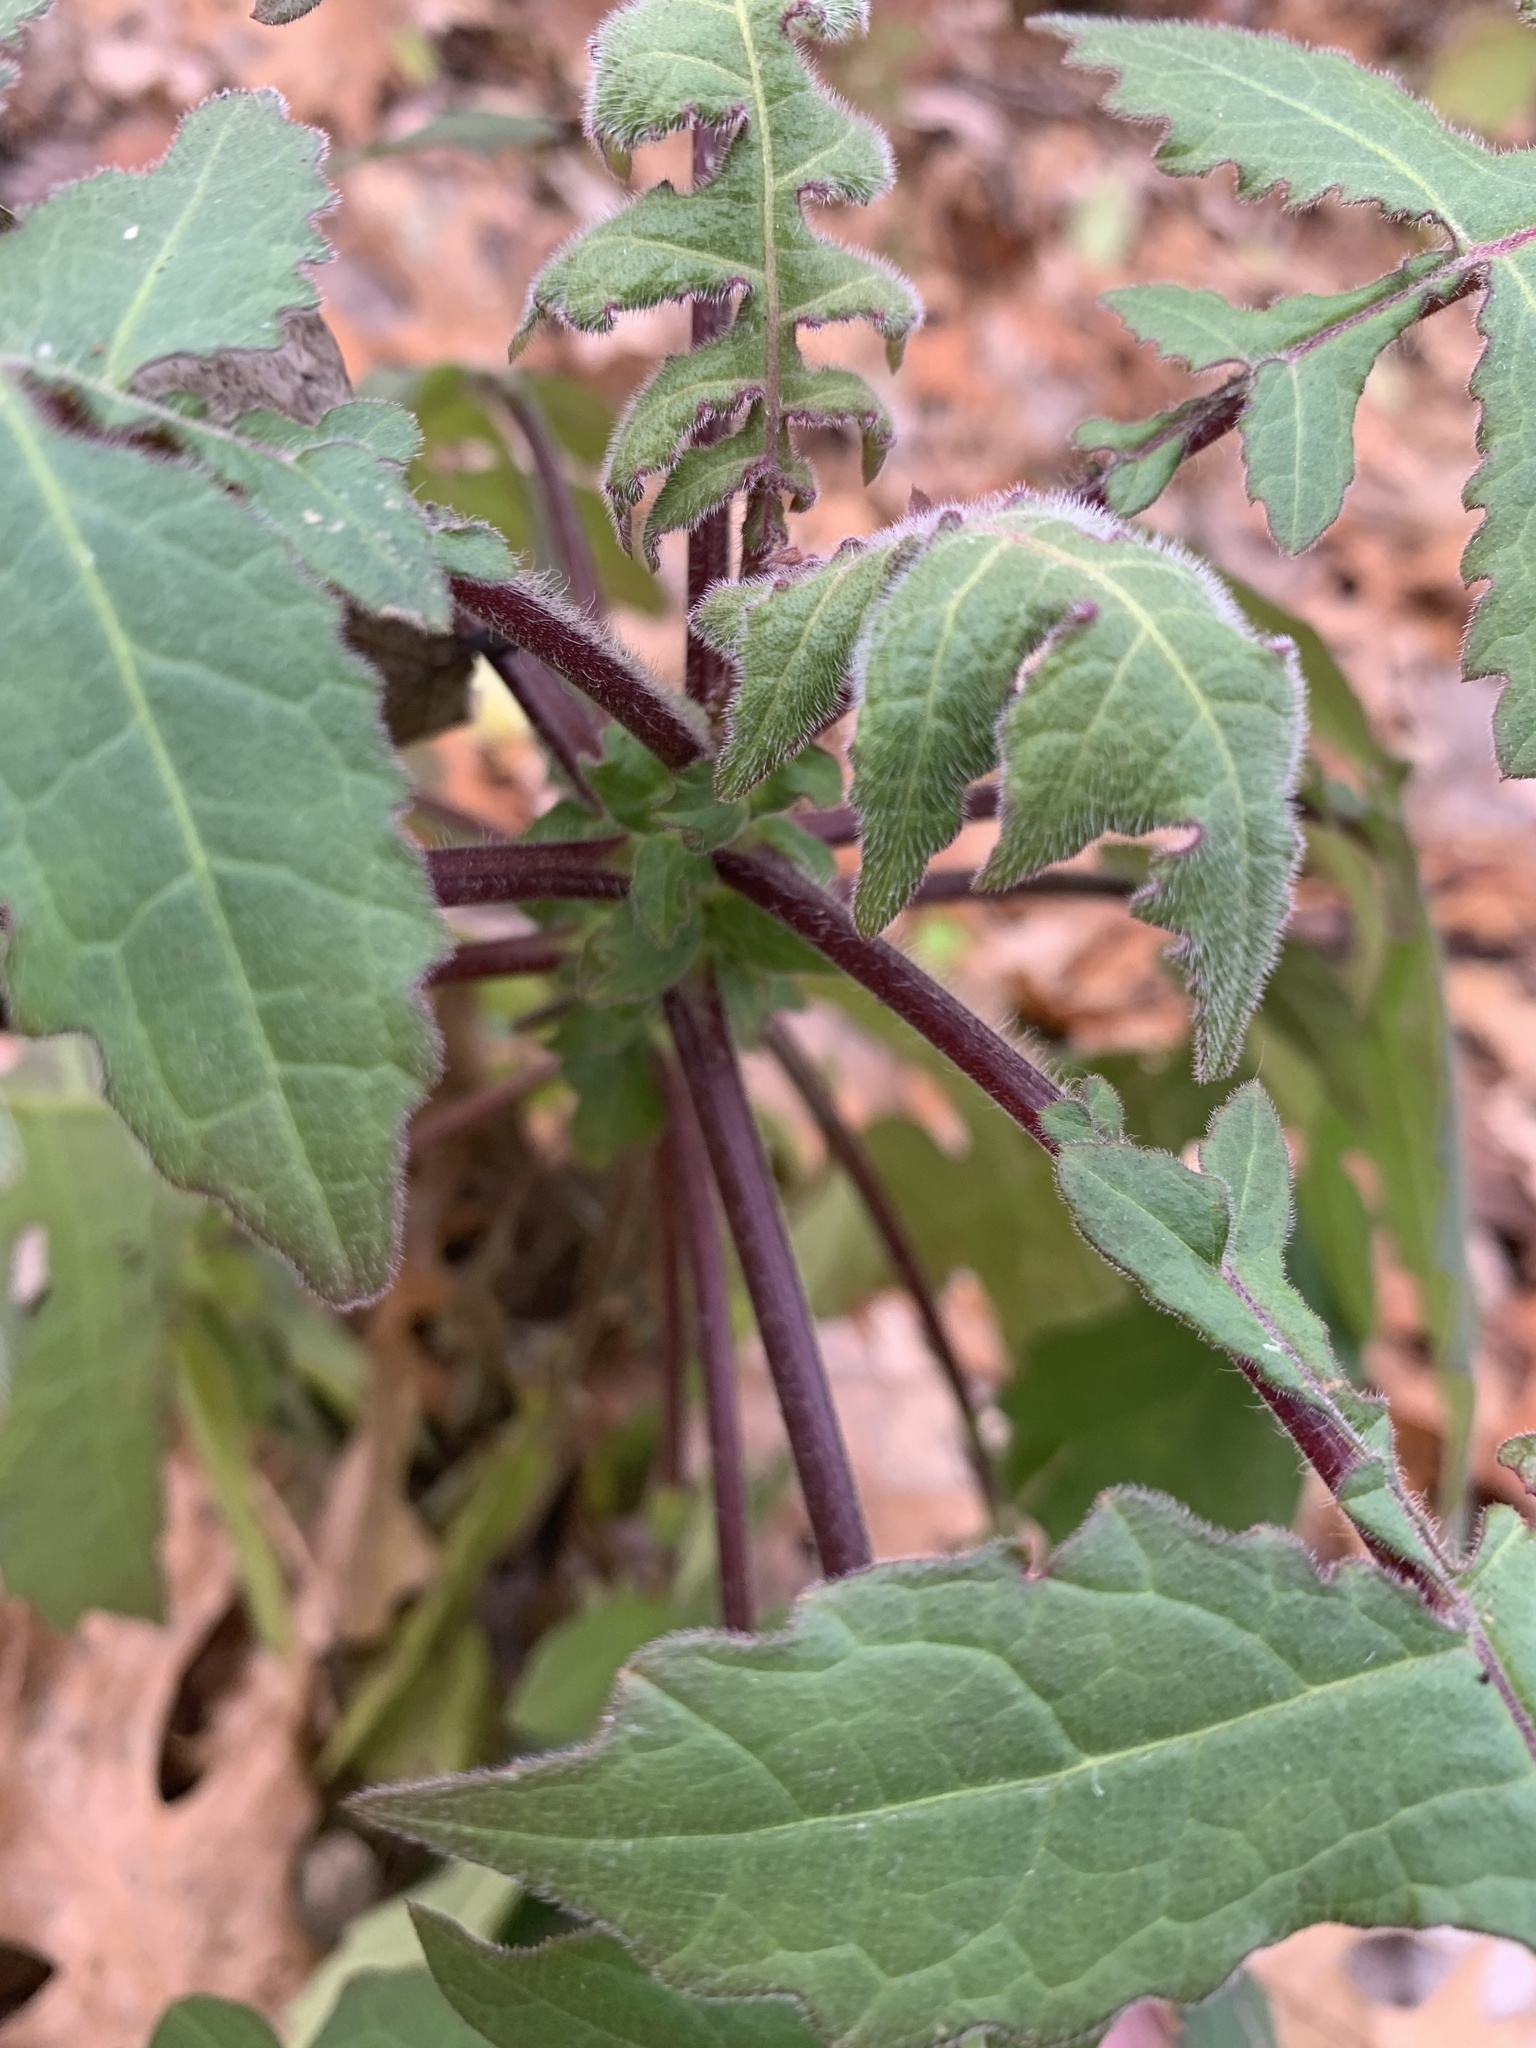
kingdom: Plantae
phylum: Tracheophyta
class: Magnoliopsida
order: Asterales
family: Asteraceae
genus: Polymnia
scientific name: Polymnia canadensis
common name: Pale-flowered leafcup
